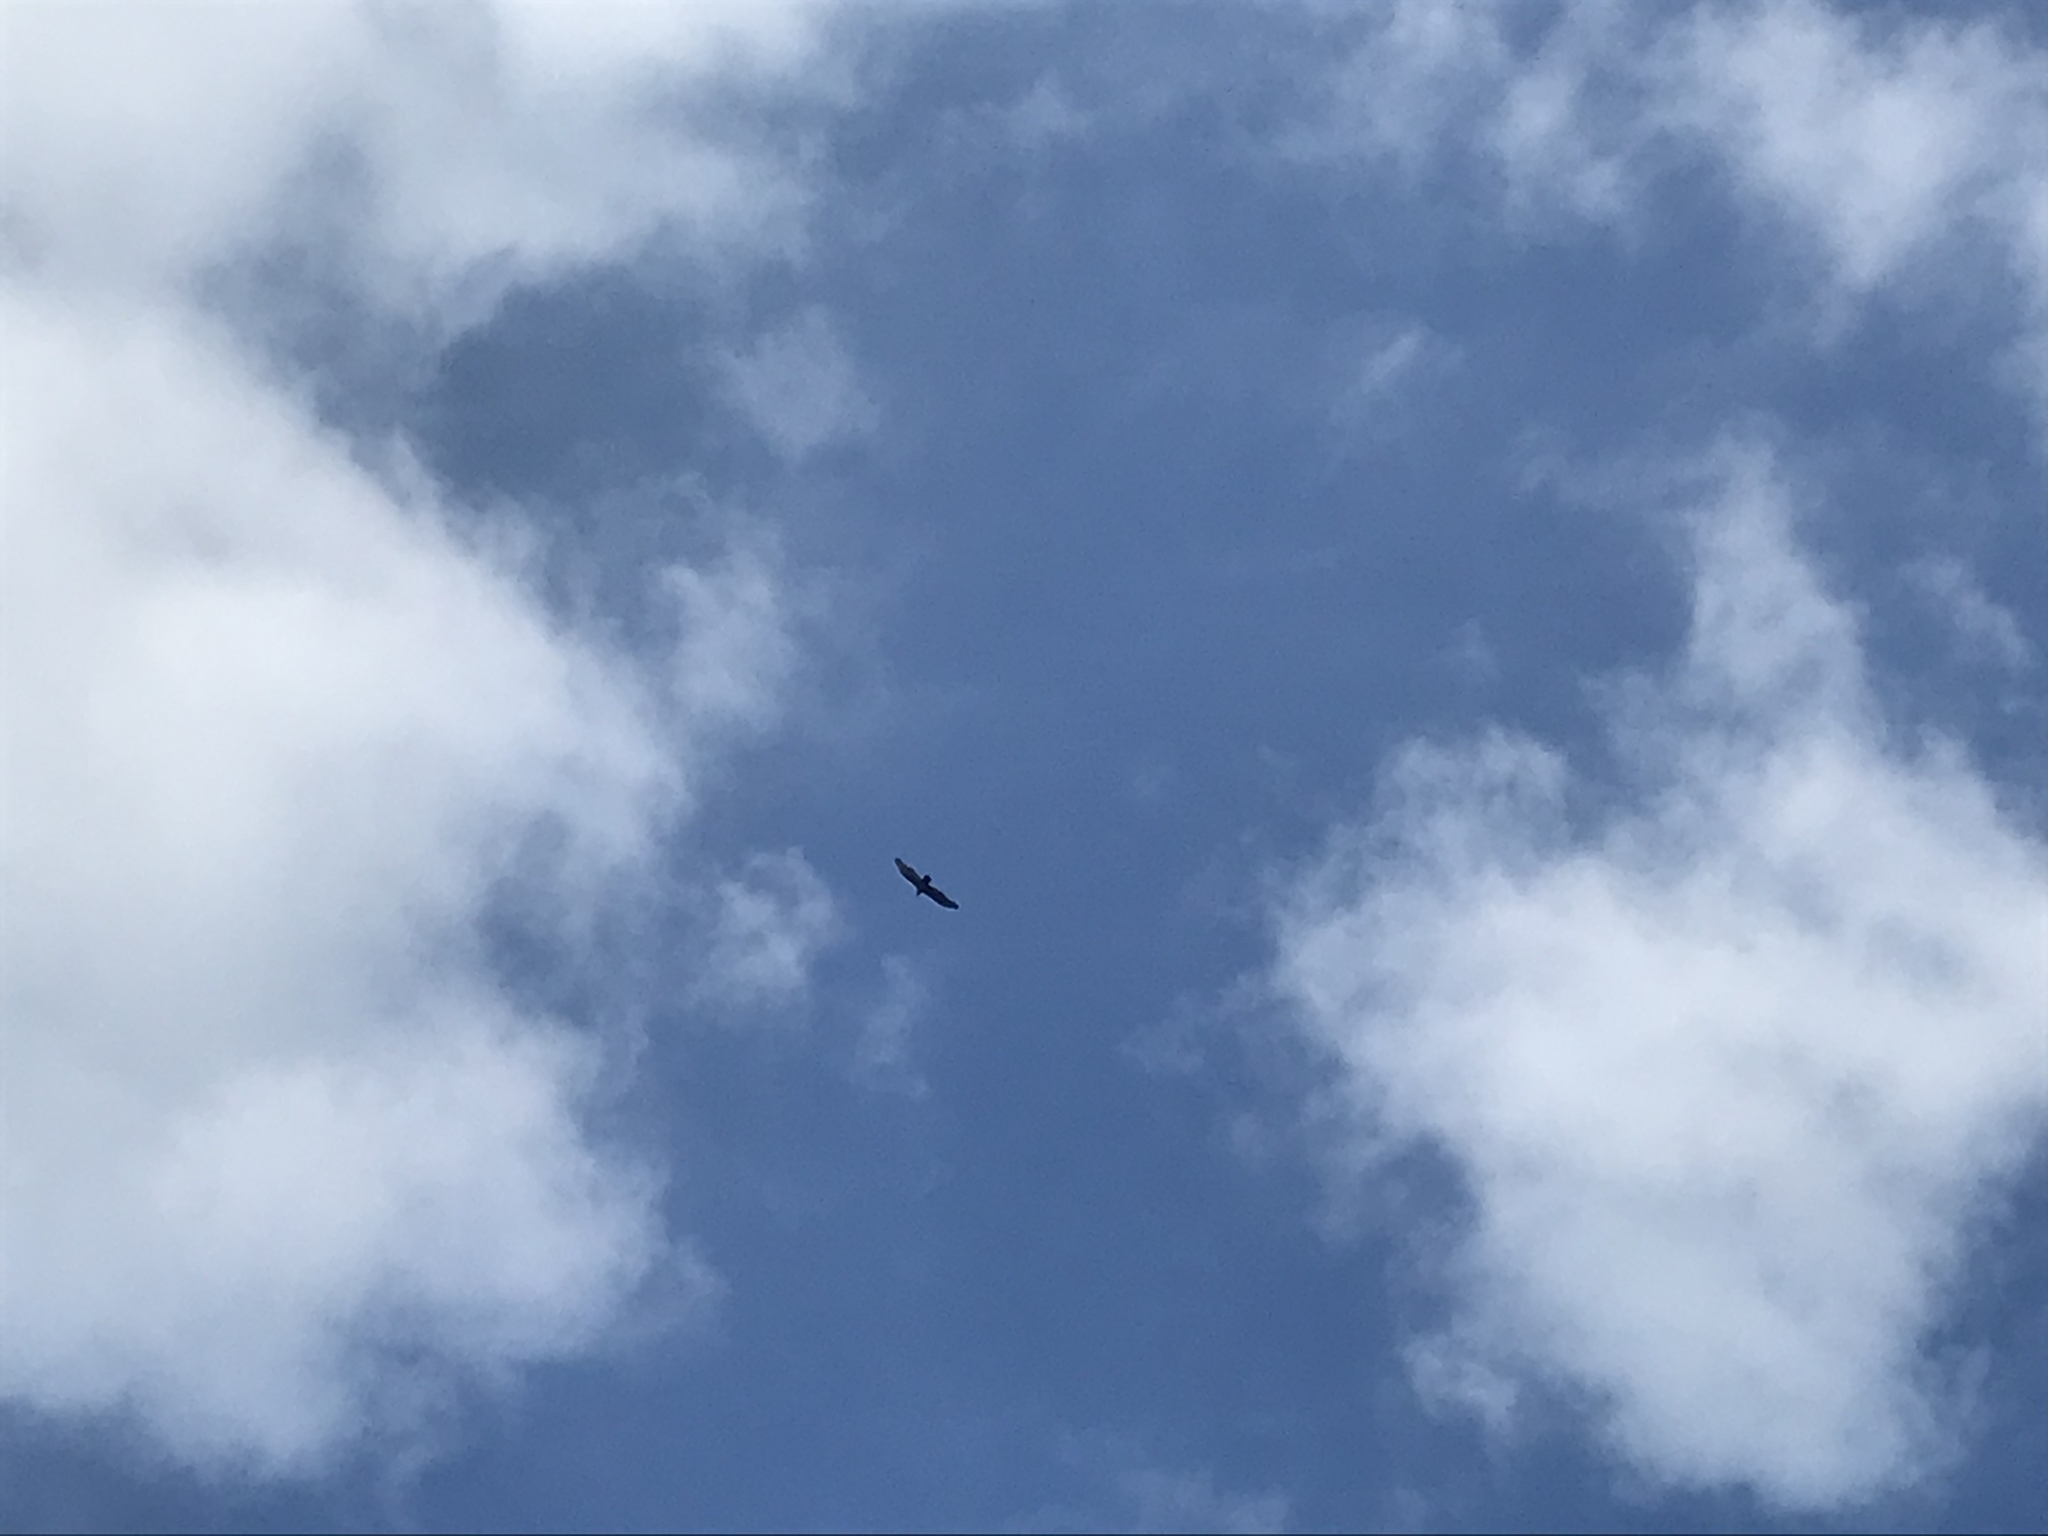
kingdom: Animalia
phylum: Chordata
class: Aves
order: Accipitriformes
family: Cathartidae
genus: Cathartes
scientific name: Cathartes aura
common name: Turkey vulture
